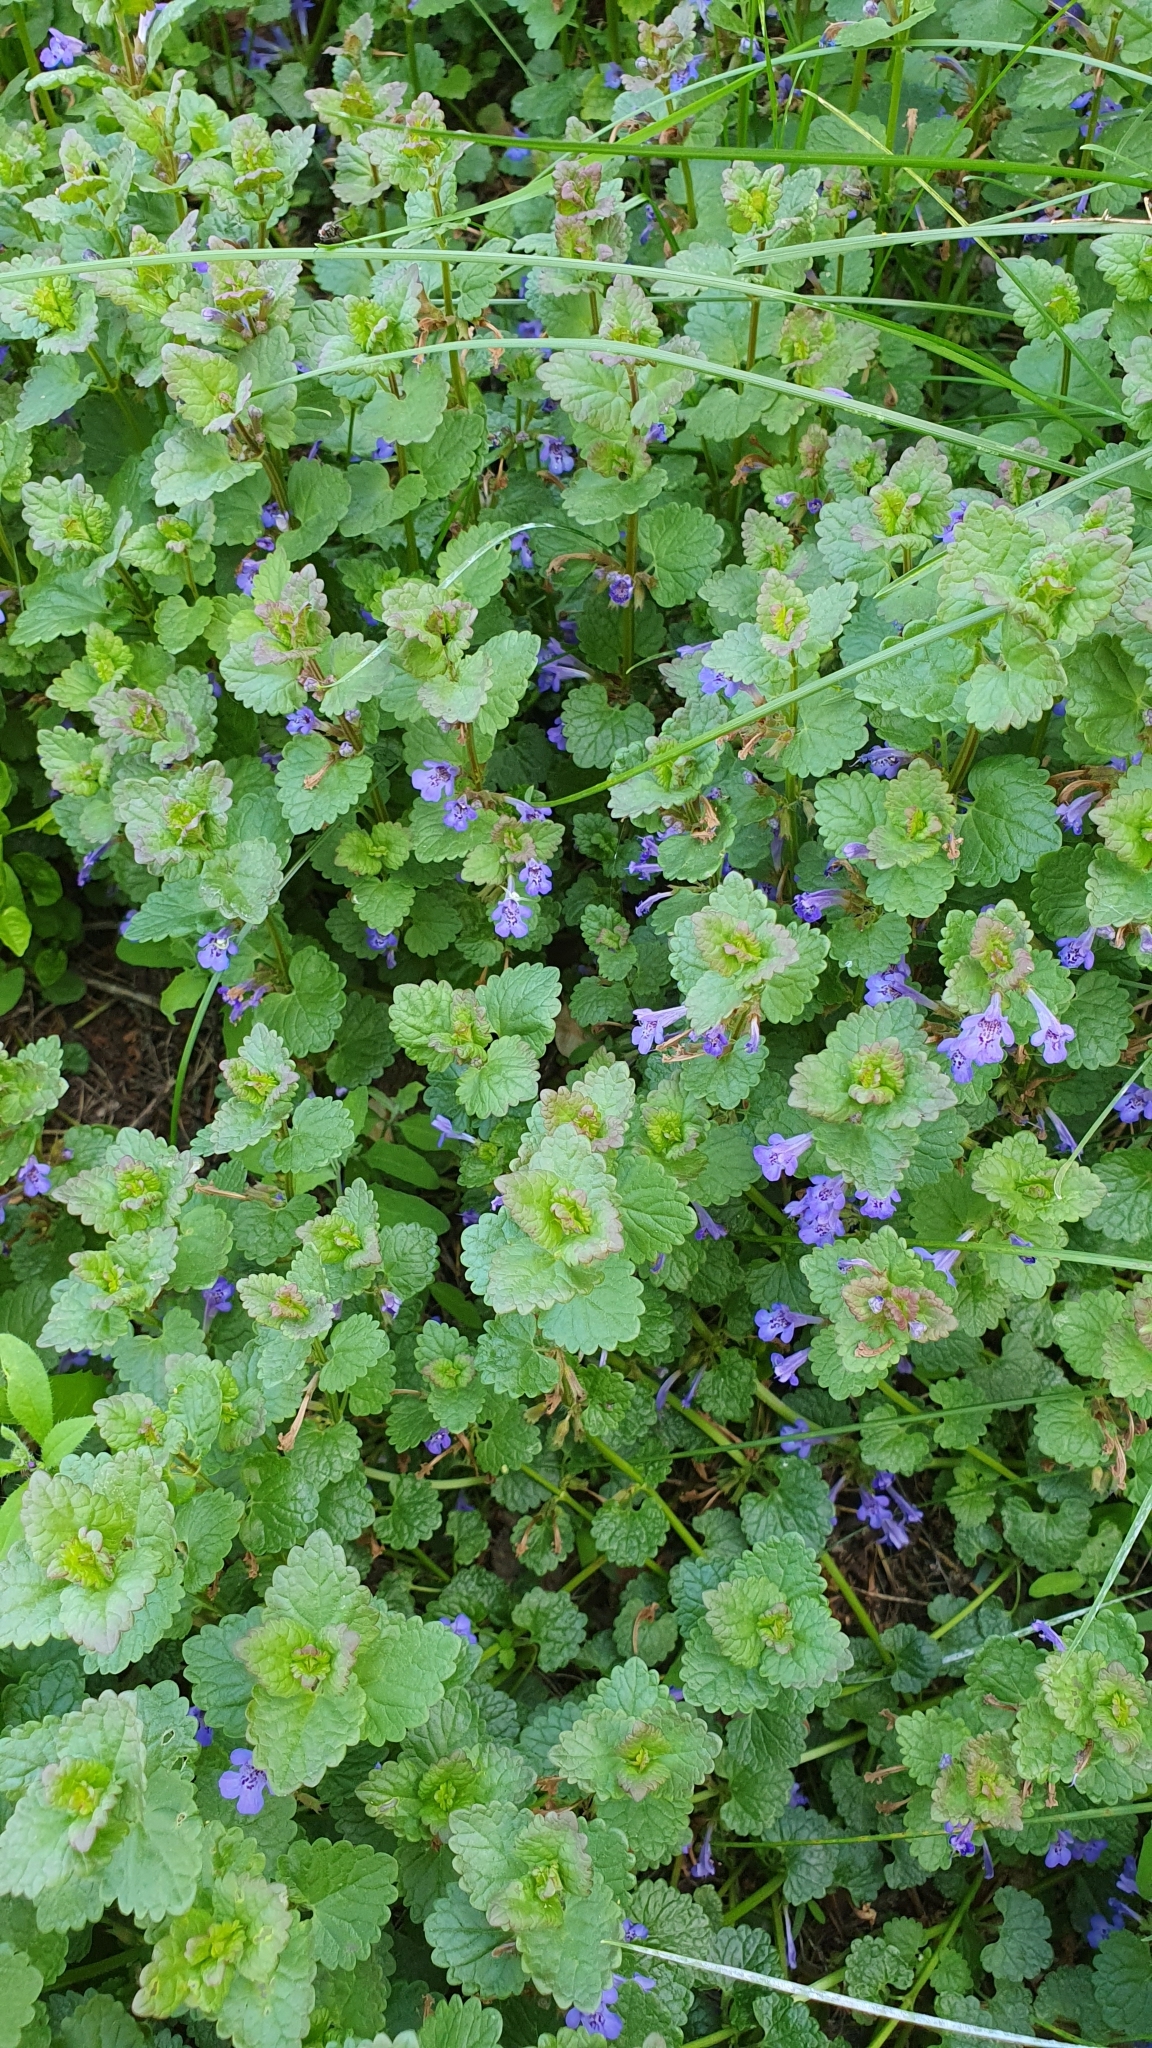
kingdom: Plantae
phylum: Tracheophyta
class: Magnoliopsida
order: Lamiales
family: Lamiaceae
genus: Glechoma
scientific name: Glechoma hederacea
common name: Ground ivy
